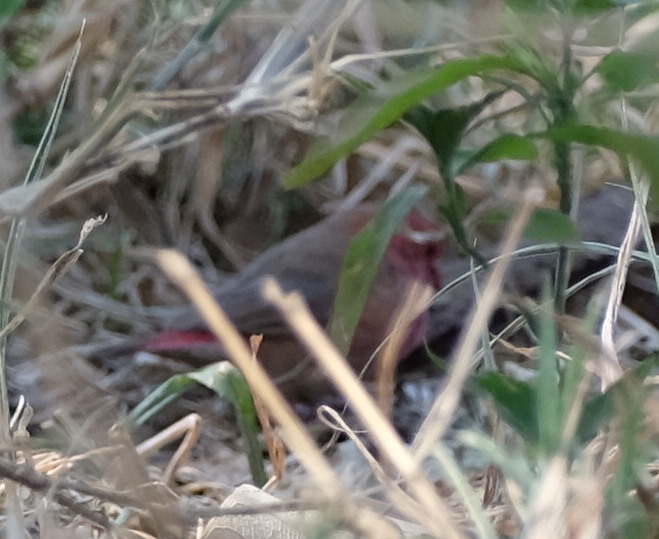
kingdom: Animalia
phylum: Chordata
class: Aves
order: Passeriformes
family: Estrildidae
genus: Lagonosticta
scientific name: Lagonosticta senegala
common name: Red-billed firefinch
